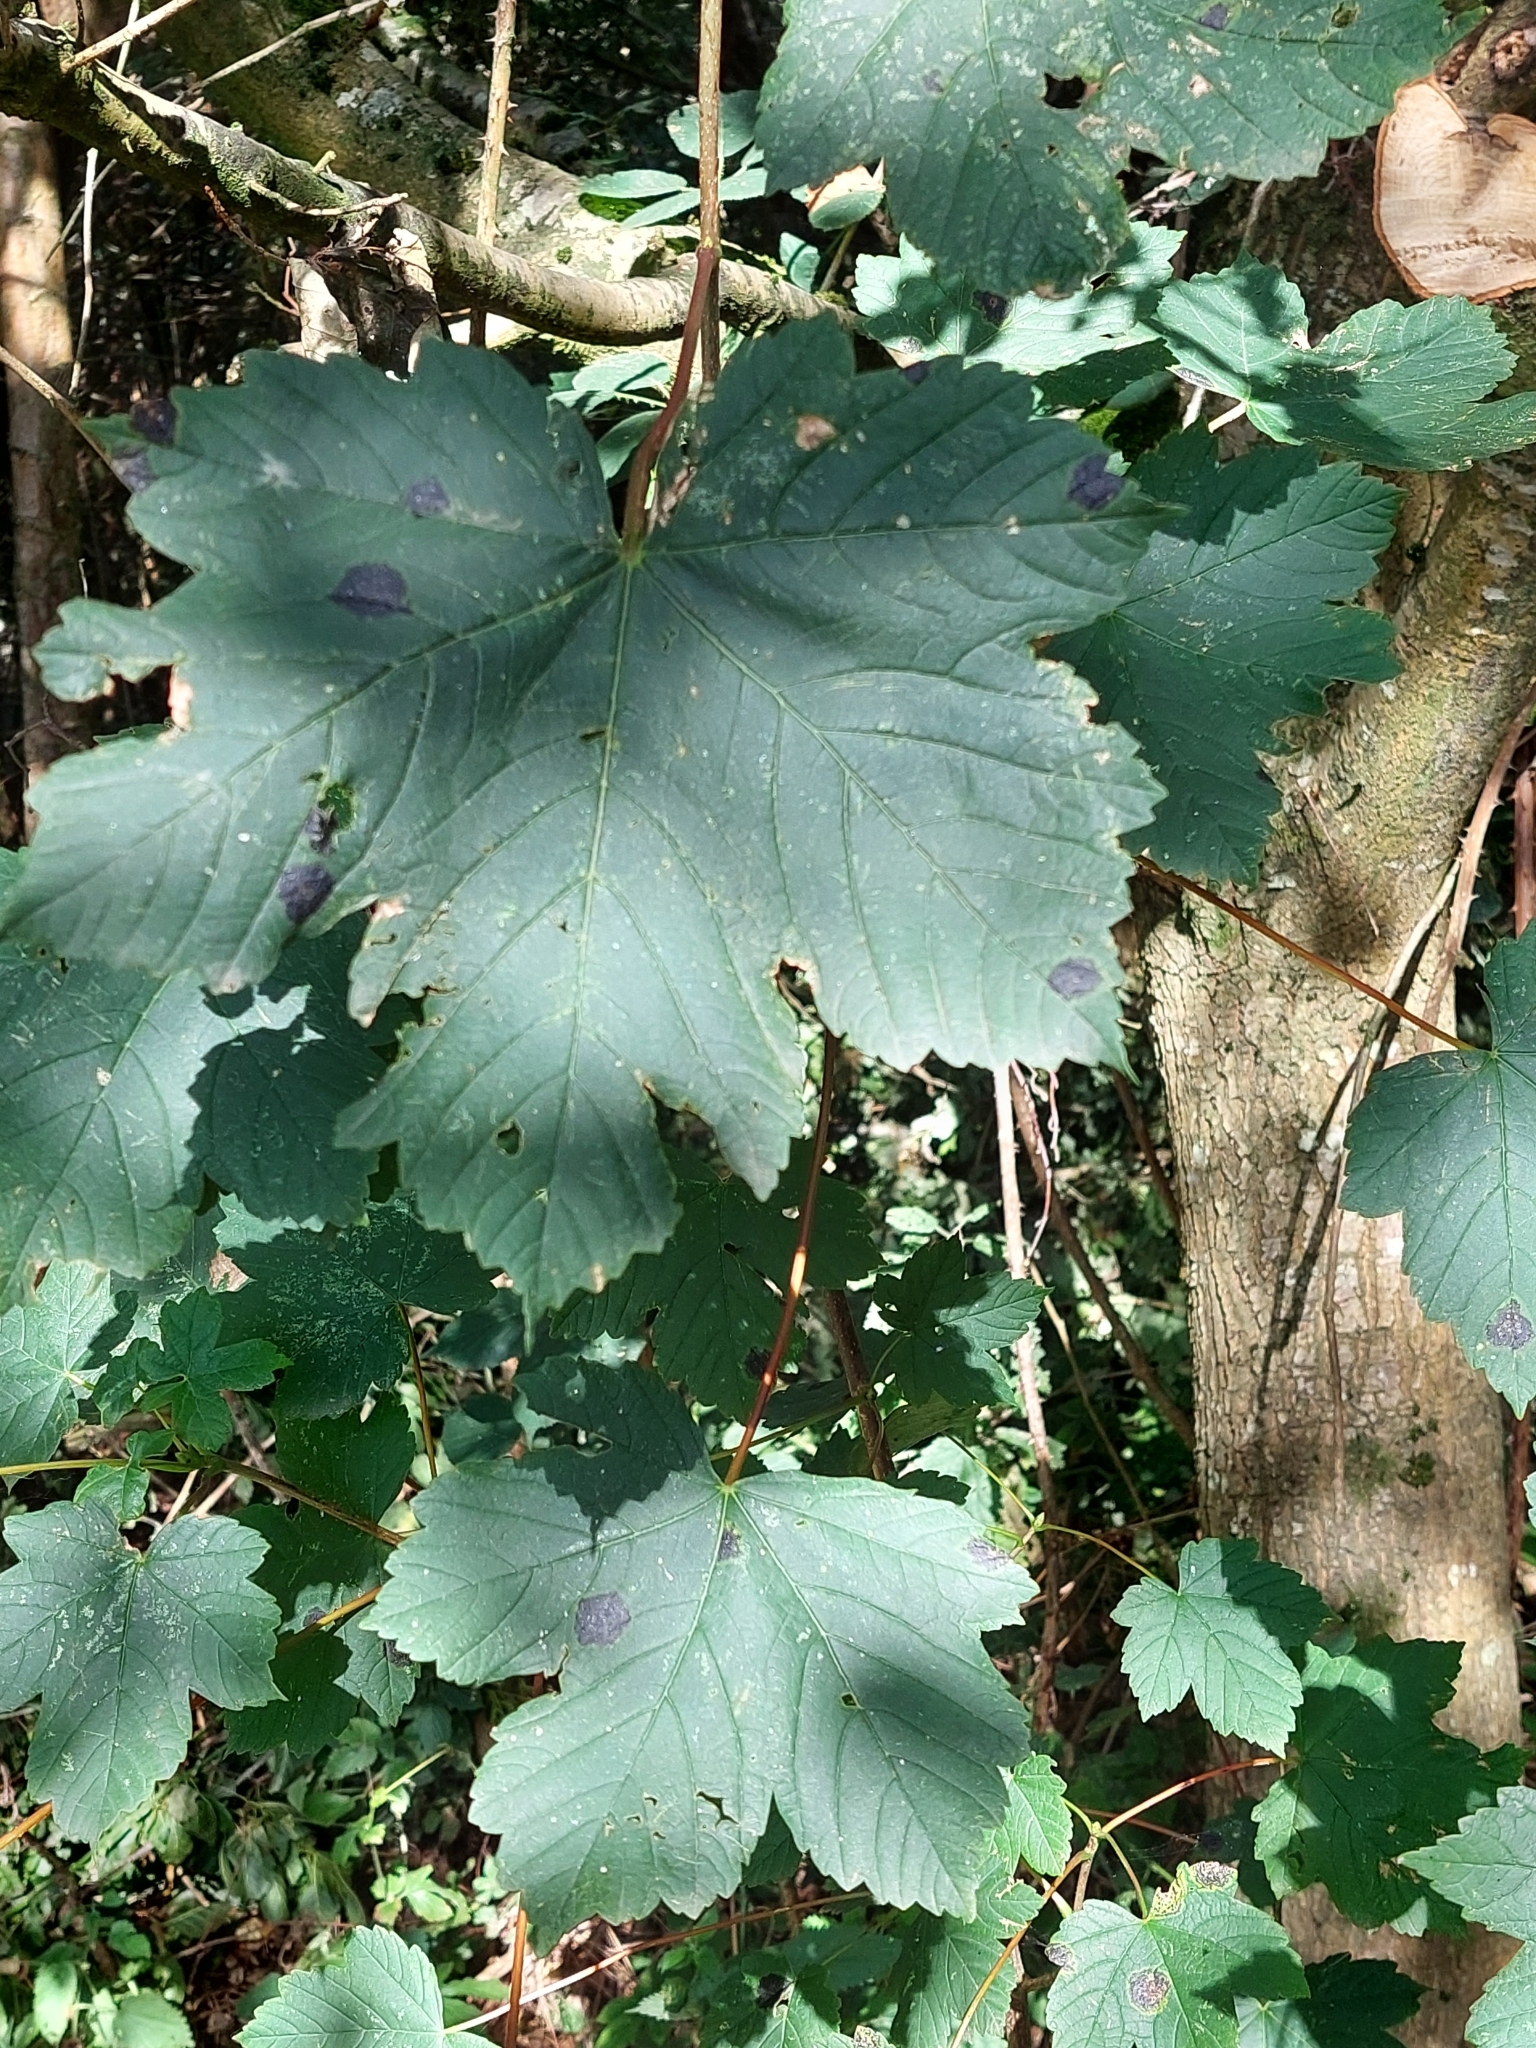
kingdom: Plantae
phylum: Tracheophyta
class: Magnoliopsida
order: Sapindales
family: Sapindaceae
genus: Acer
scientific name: Acer pseudoplatanus
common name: Sycamore
